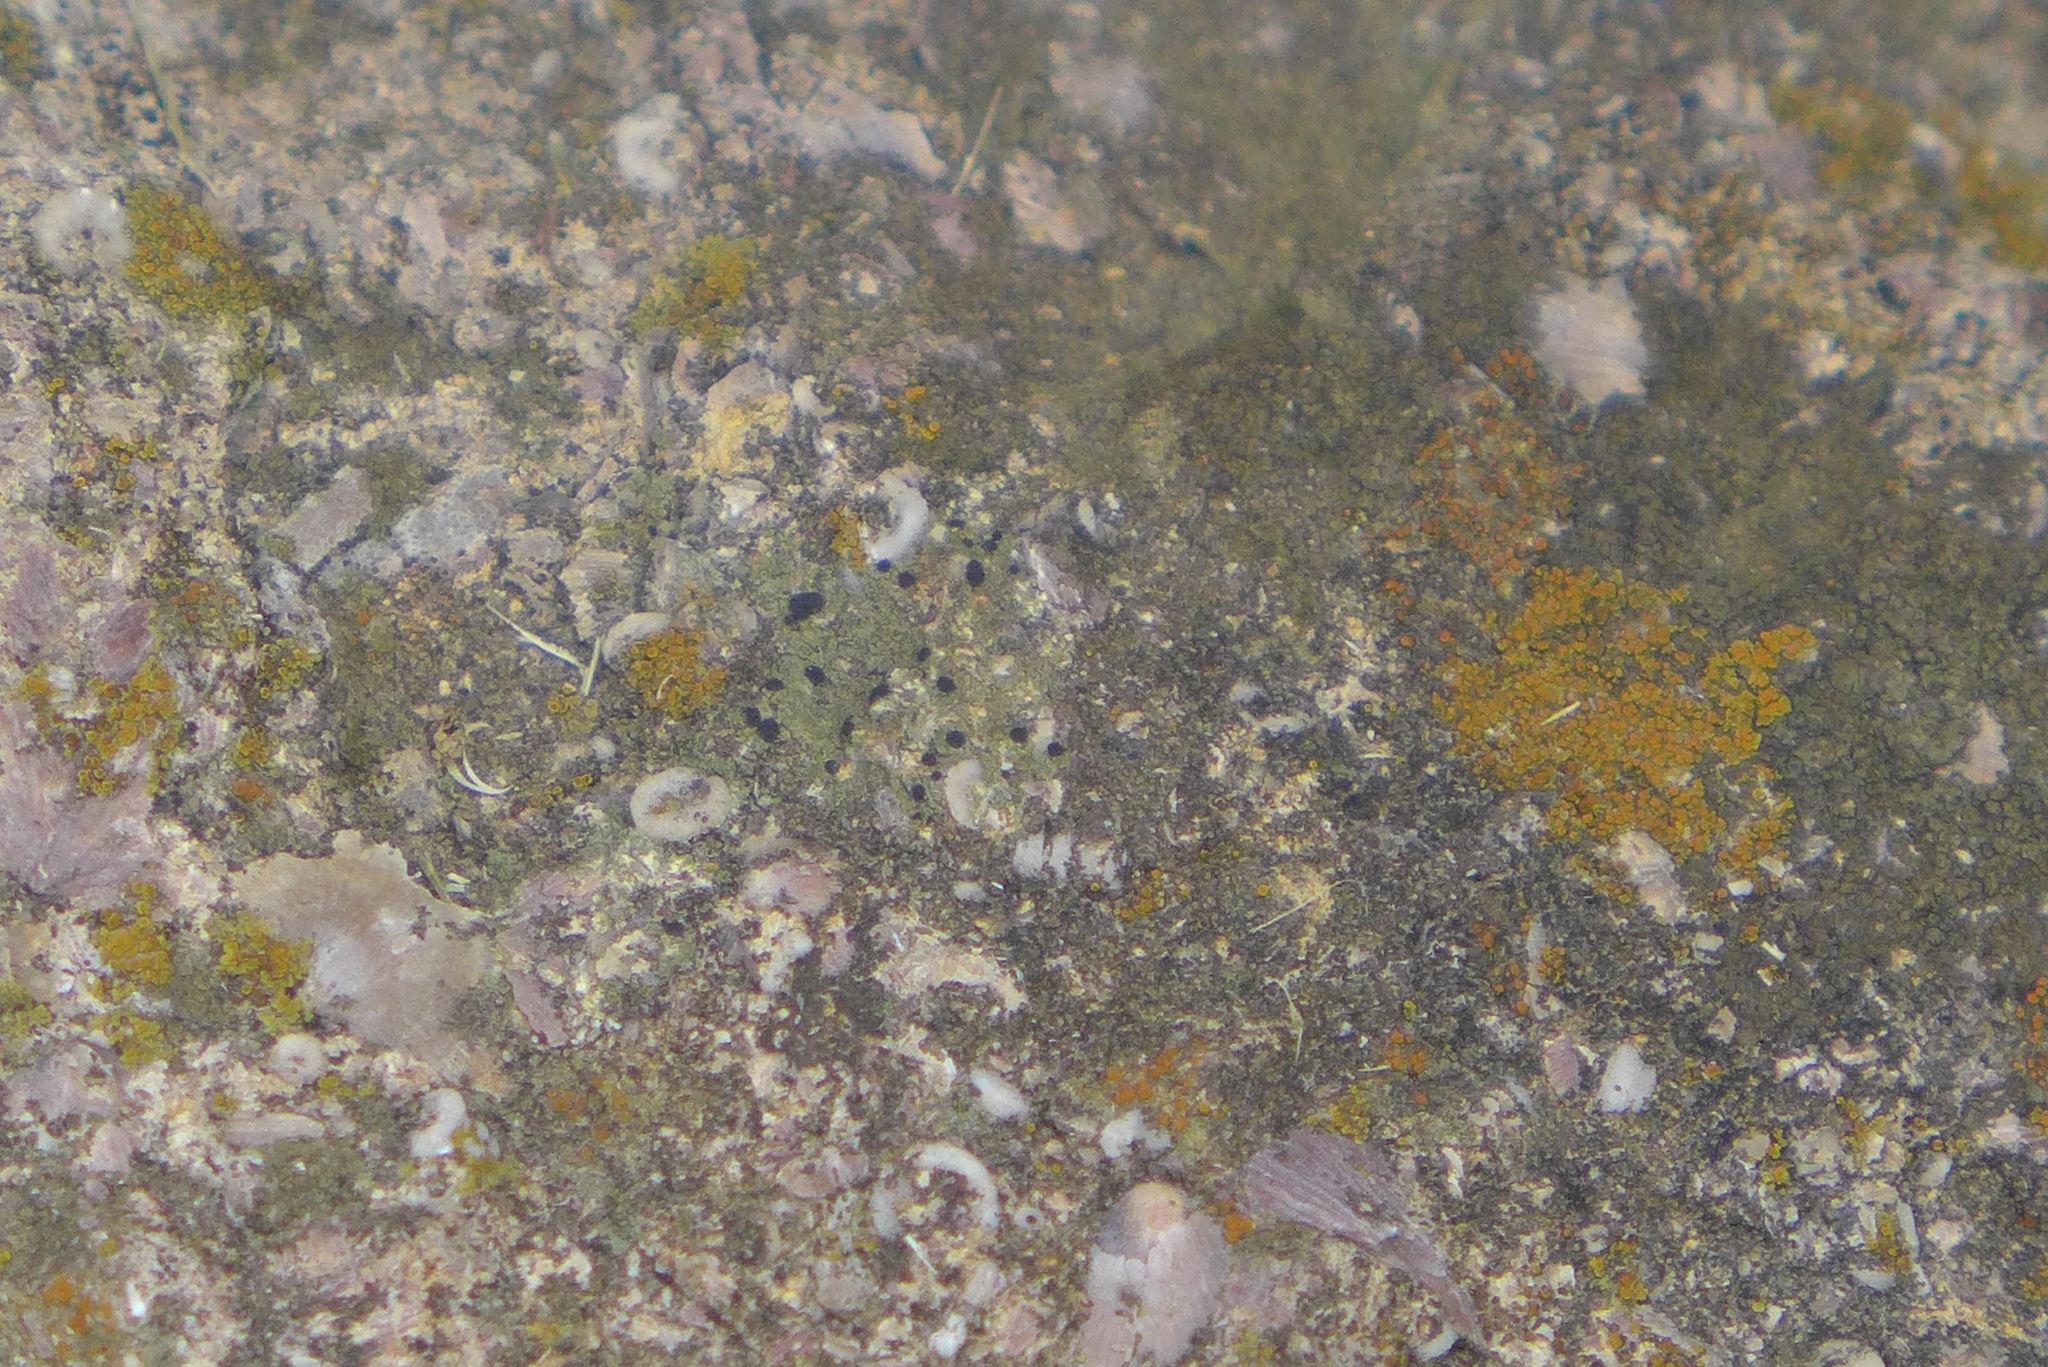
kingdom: Fungi
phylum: Ascomycota
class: Lecanoromycetes
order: Lecanorales
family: Ramalinaceae
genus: Bacidia
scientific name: Bacidia
